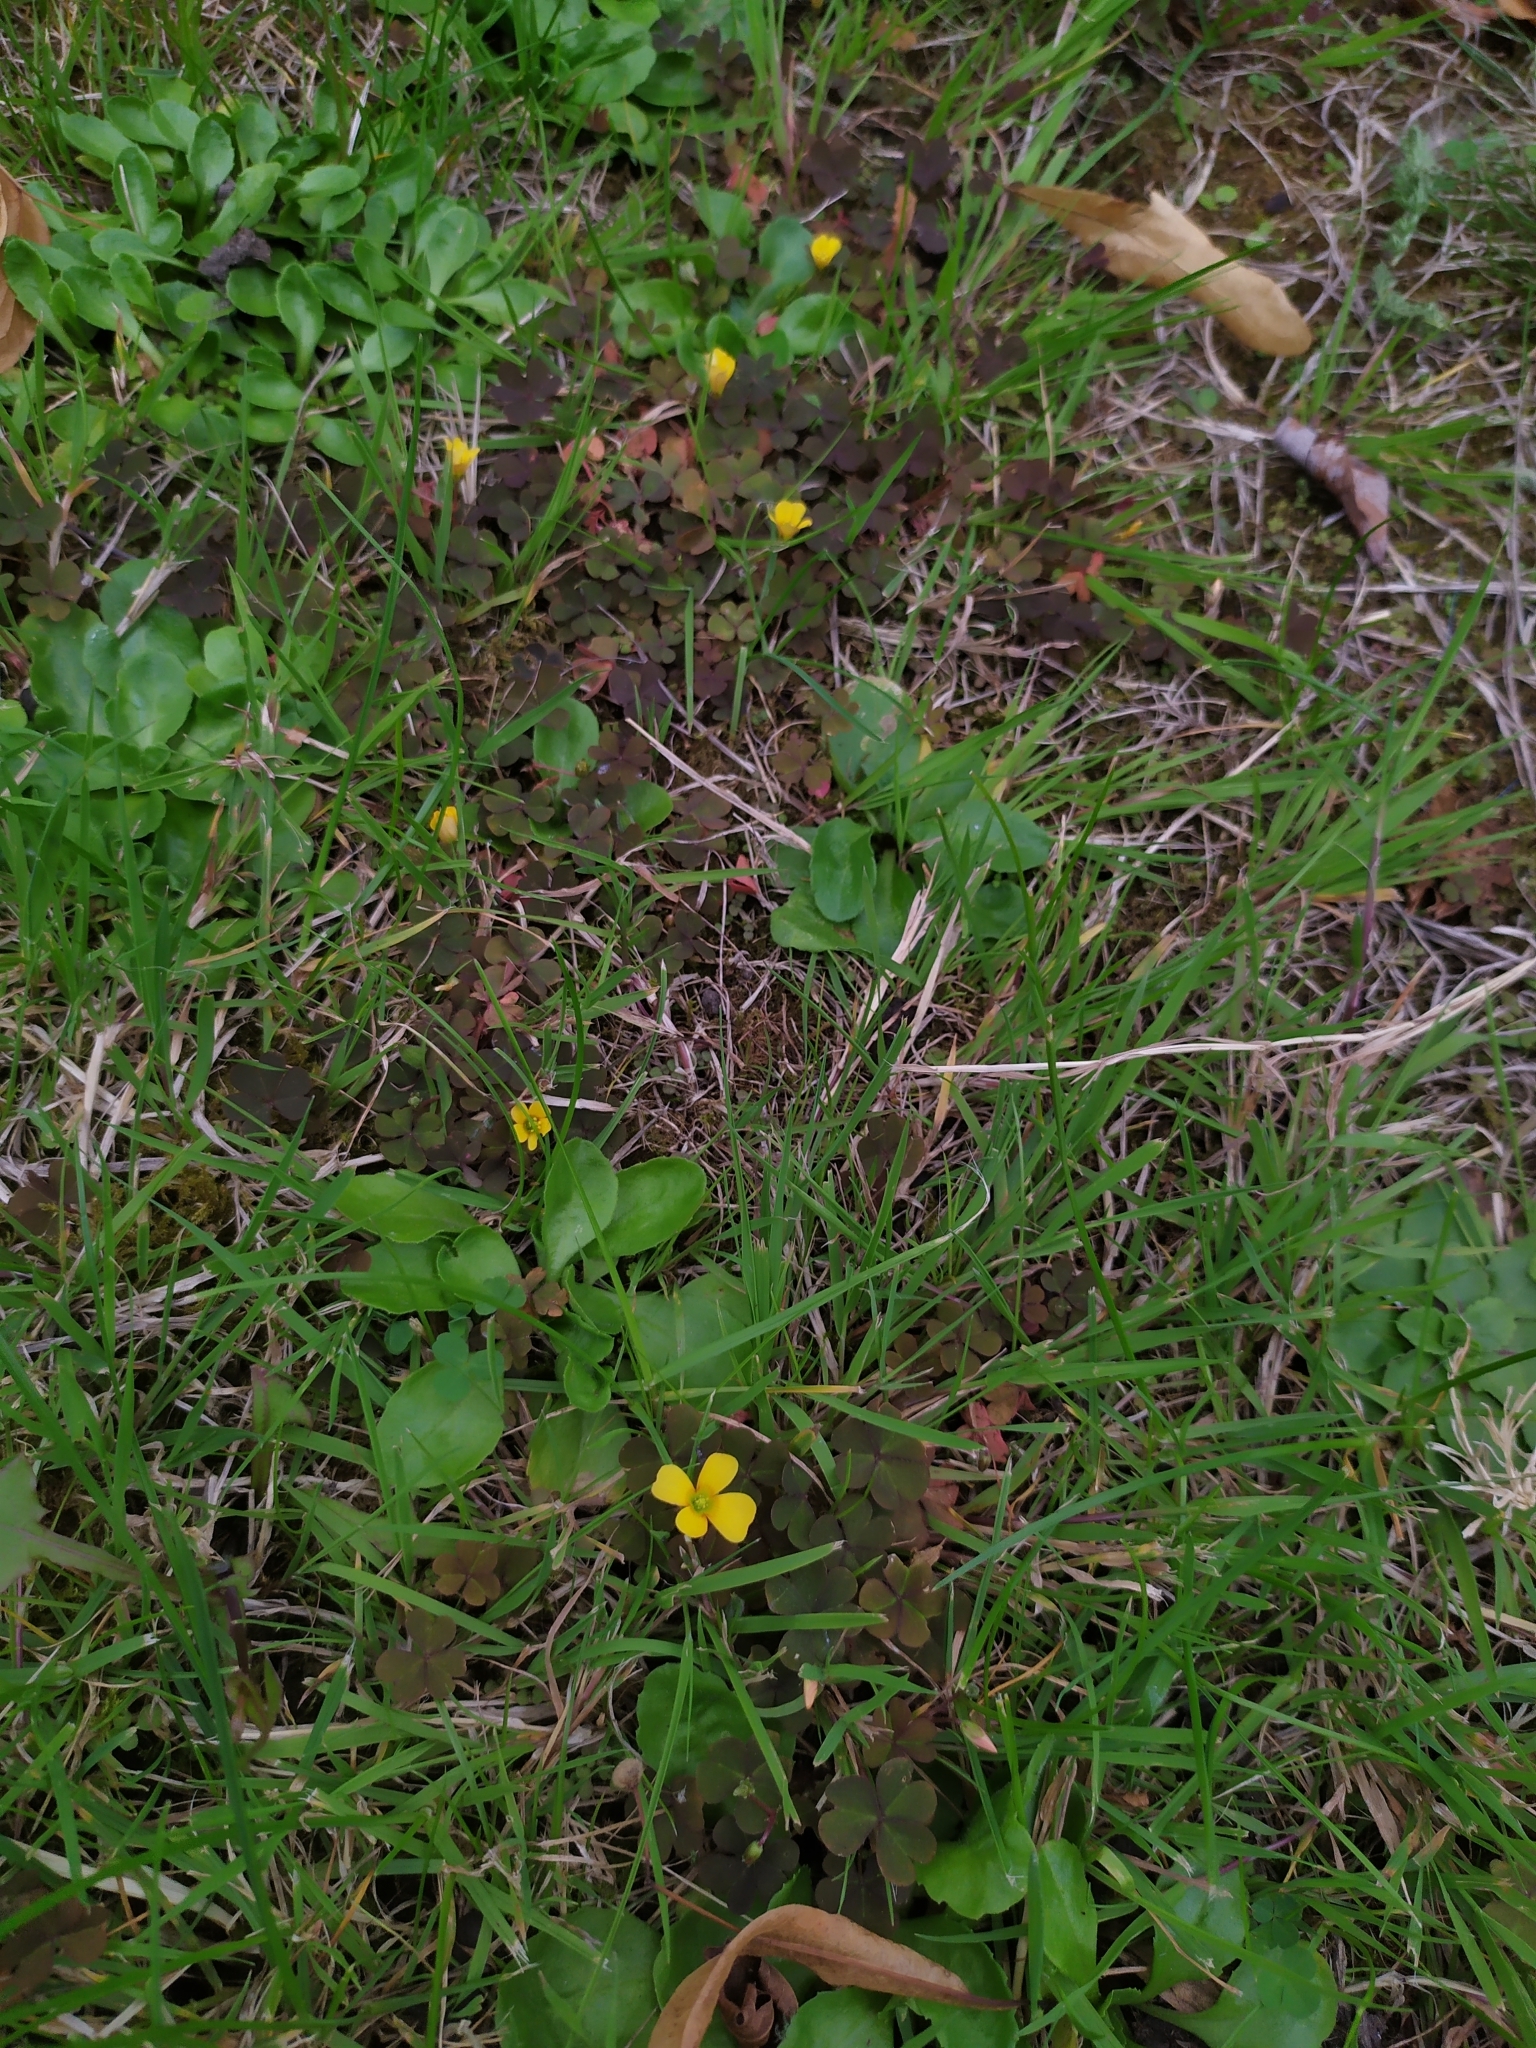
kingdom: Plantae
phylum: Tracheophyta
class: Magnoliopsida
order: Oxalidales
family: Oxalidaceae
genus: Oxalis
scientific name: Oxalis corniculata
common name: Procumbent yellow-sorrel
